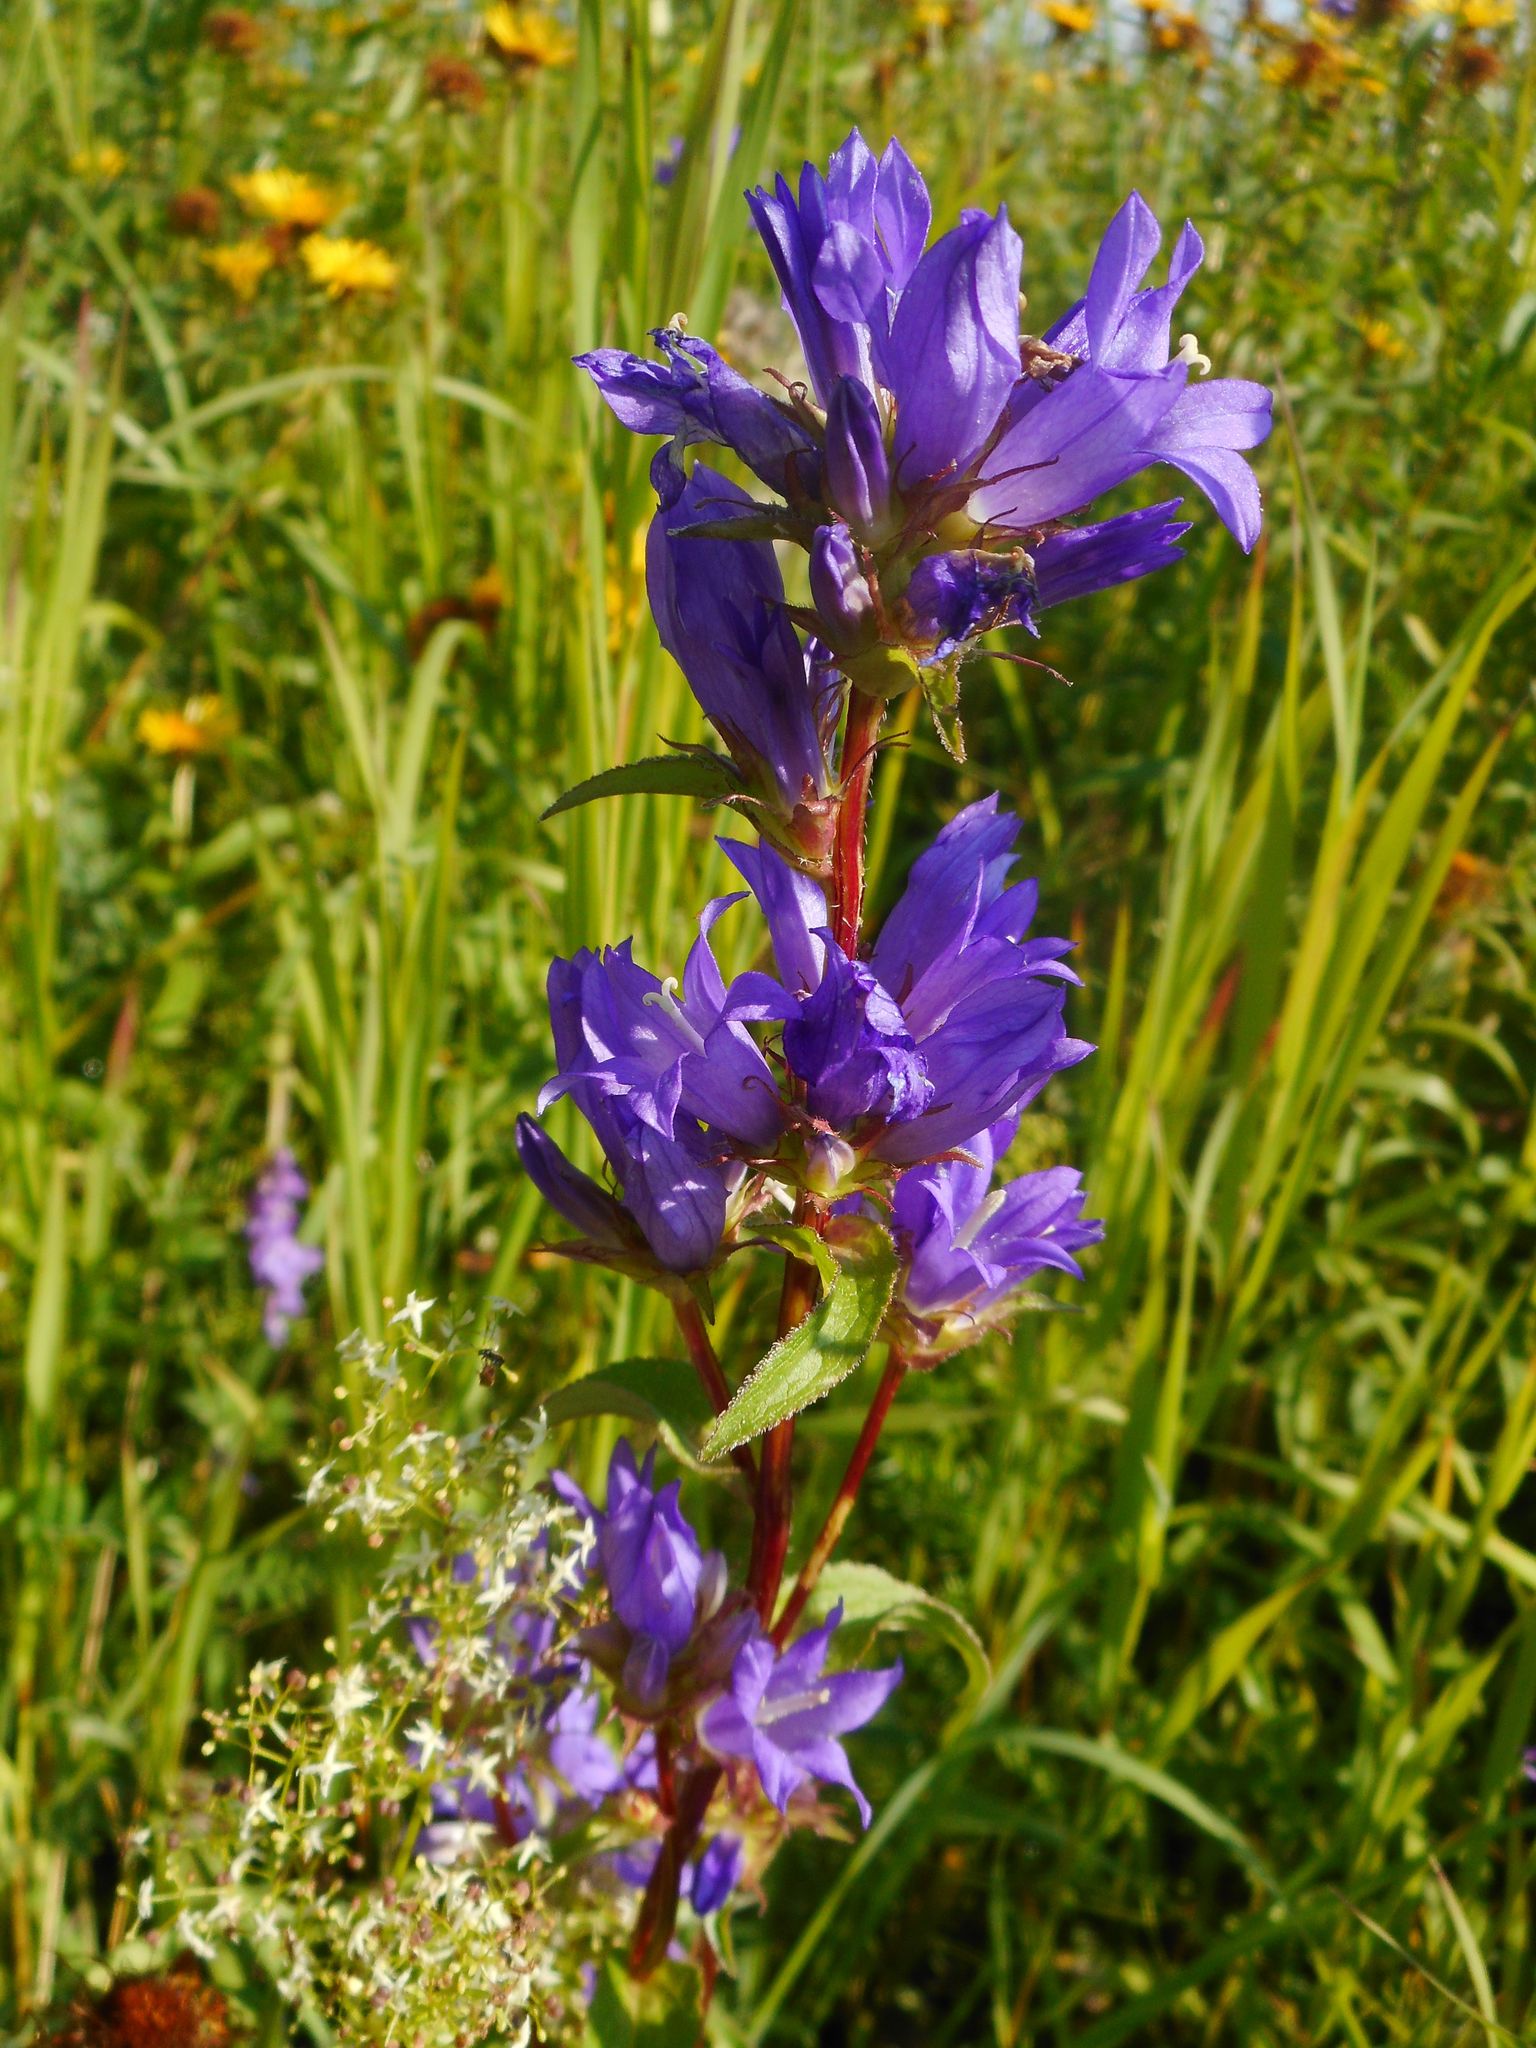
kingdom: Plantae
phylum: Tracheophyta
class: Magnoliopsida
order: Asterales
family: Campanulaceae
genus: Campanula
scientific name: Campanula glomerata
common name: Clustered bellflower
